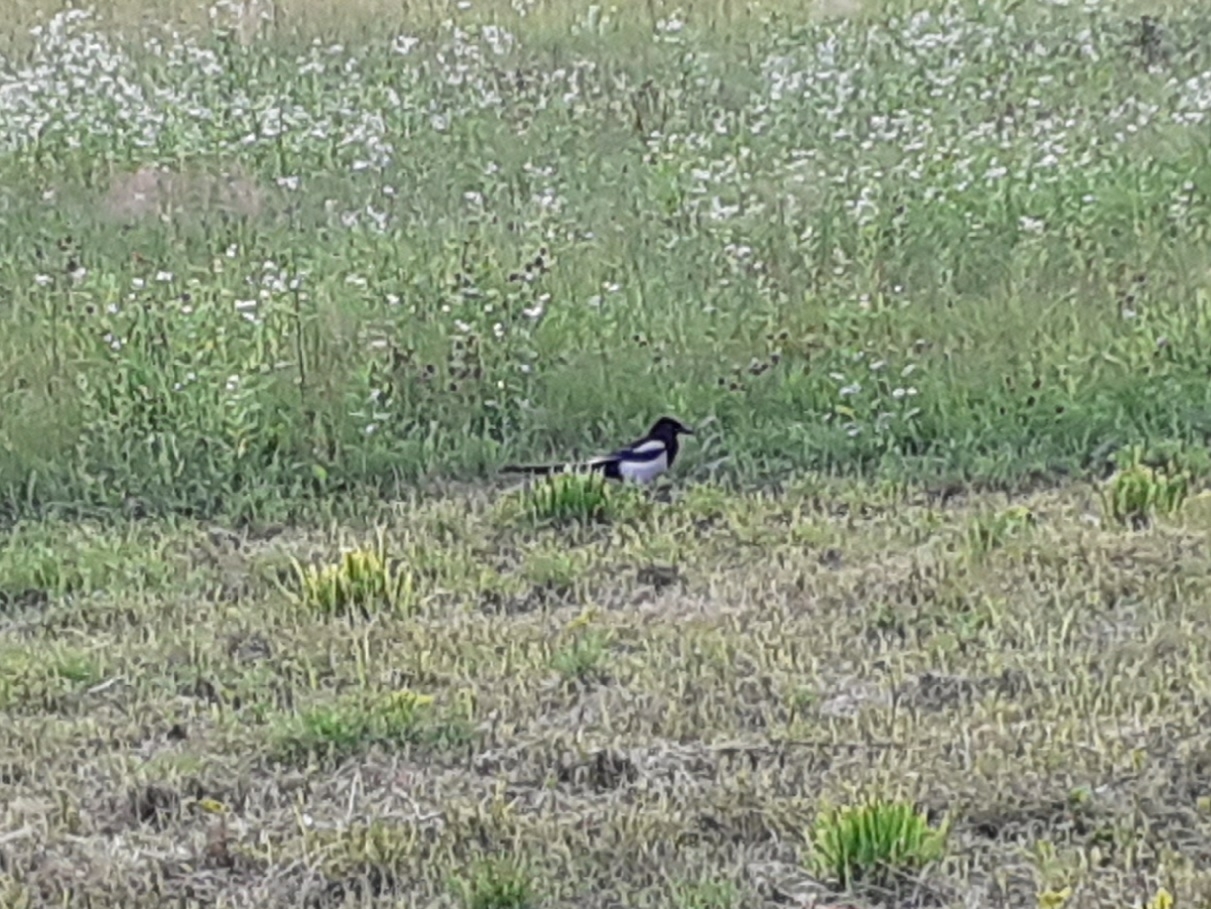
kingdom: Animalia
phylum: Chordata
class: Aves
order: Passeriformes
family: Corvidae
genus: Pica
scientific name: Pica pica
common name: Eurasian magpie
